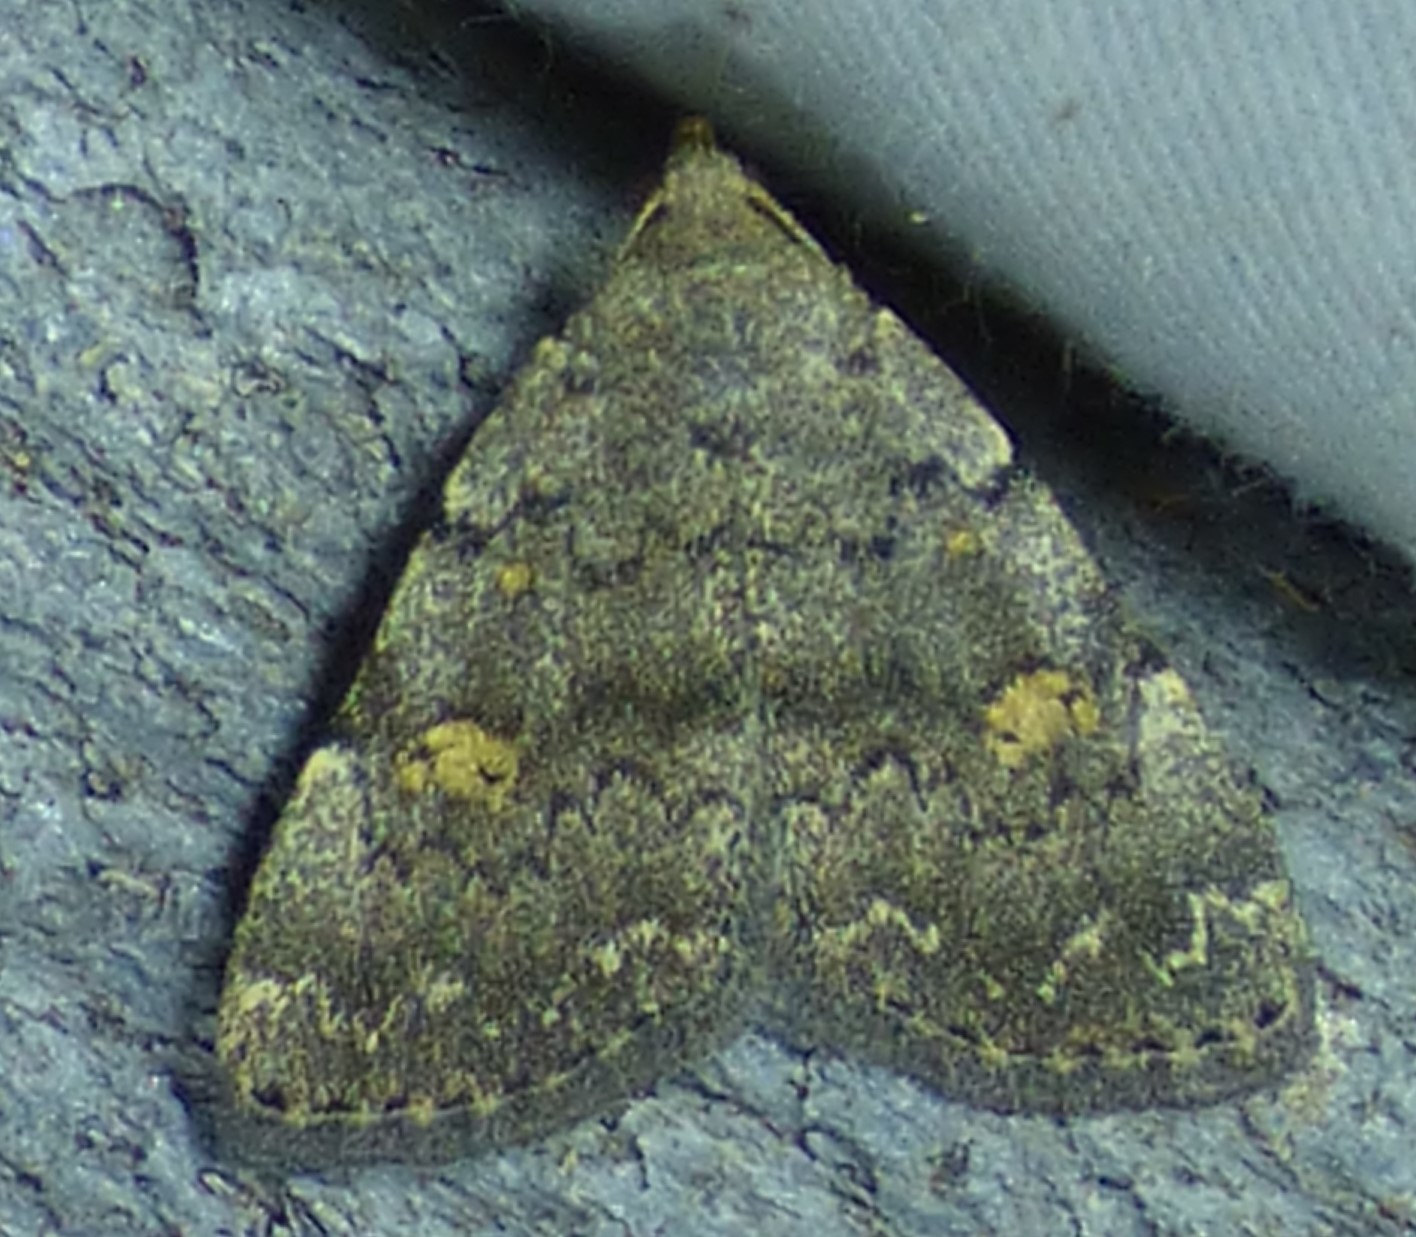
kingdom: Animalia
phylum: Arthropoda
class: Insecta
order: Lepidoptera
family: Erebidae
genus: Idia
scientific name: Idia aemula
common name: Common idia moth
